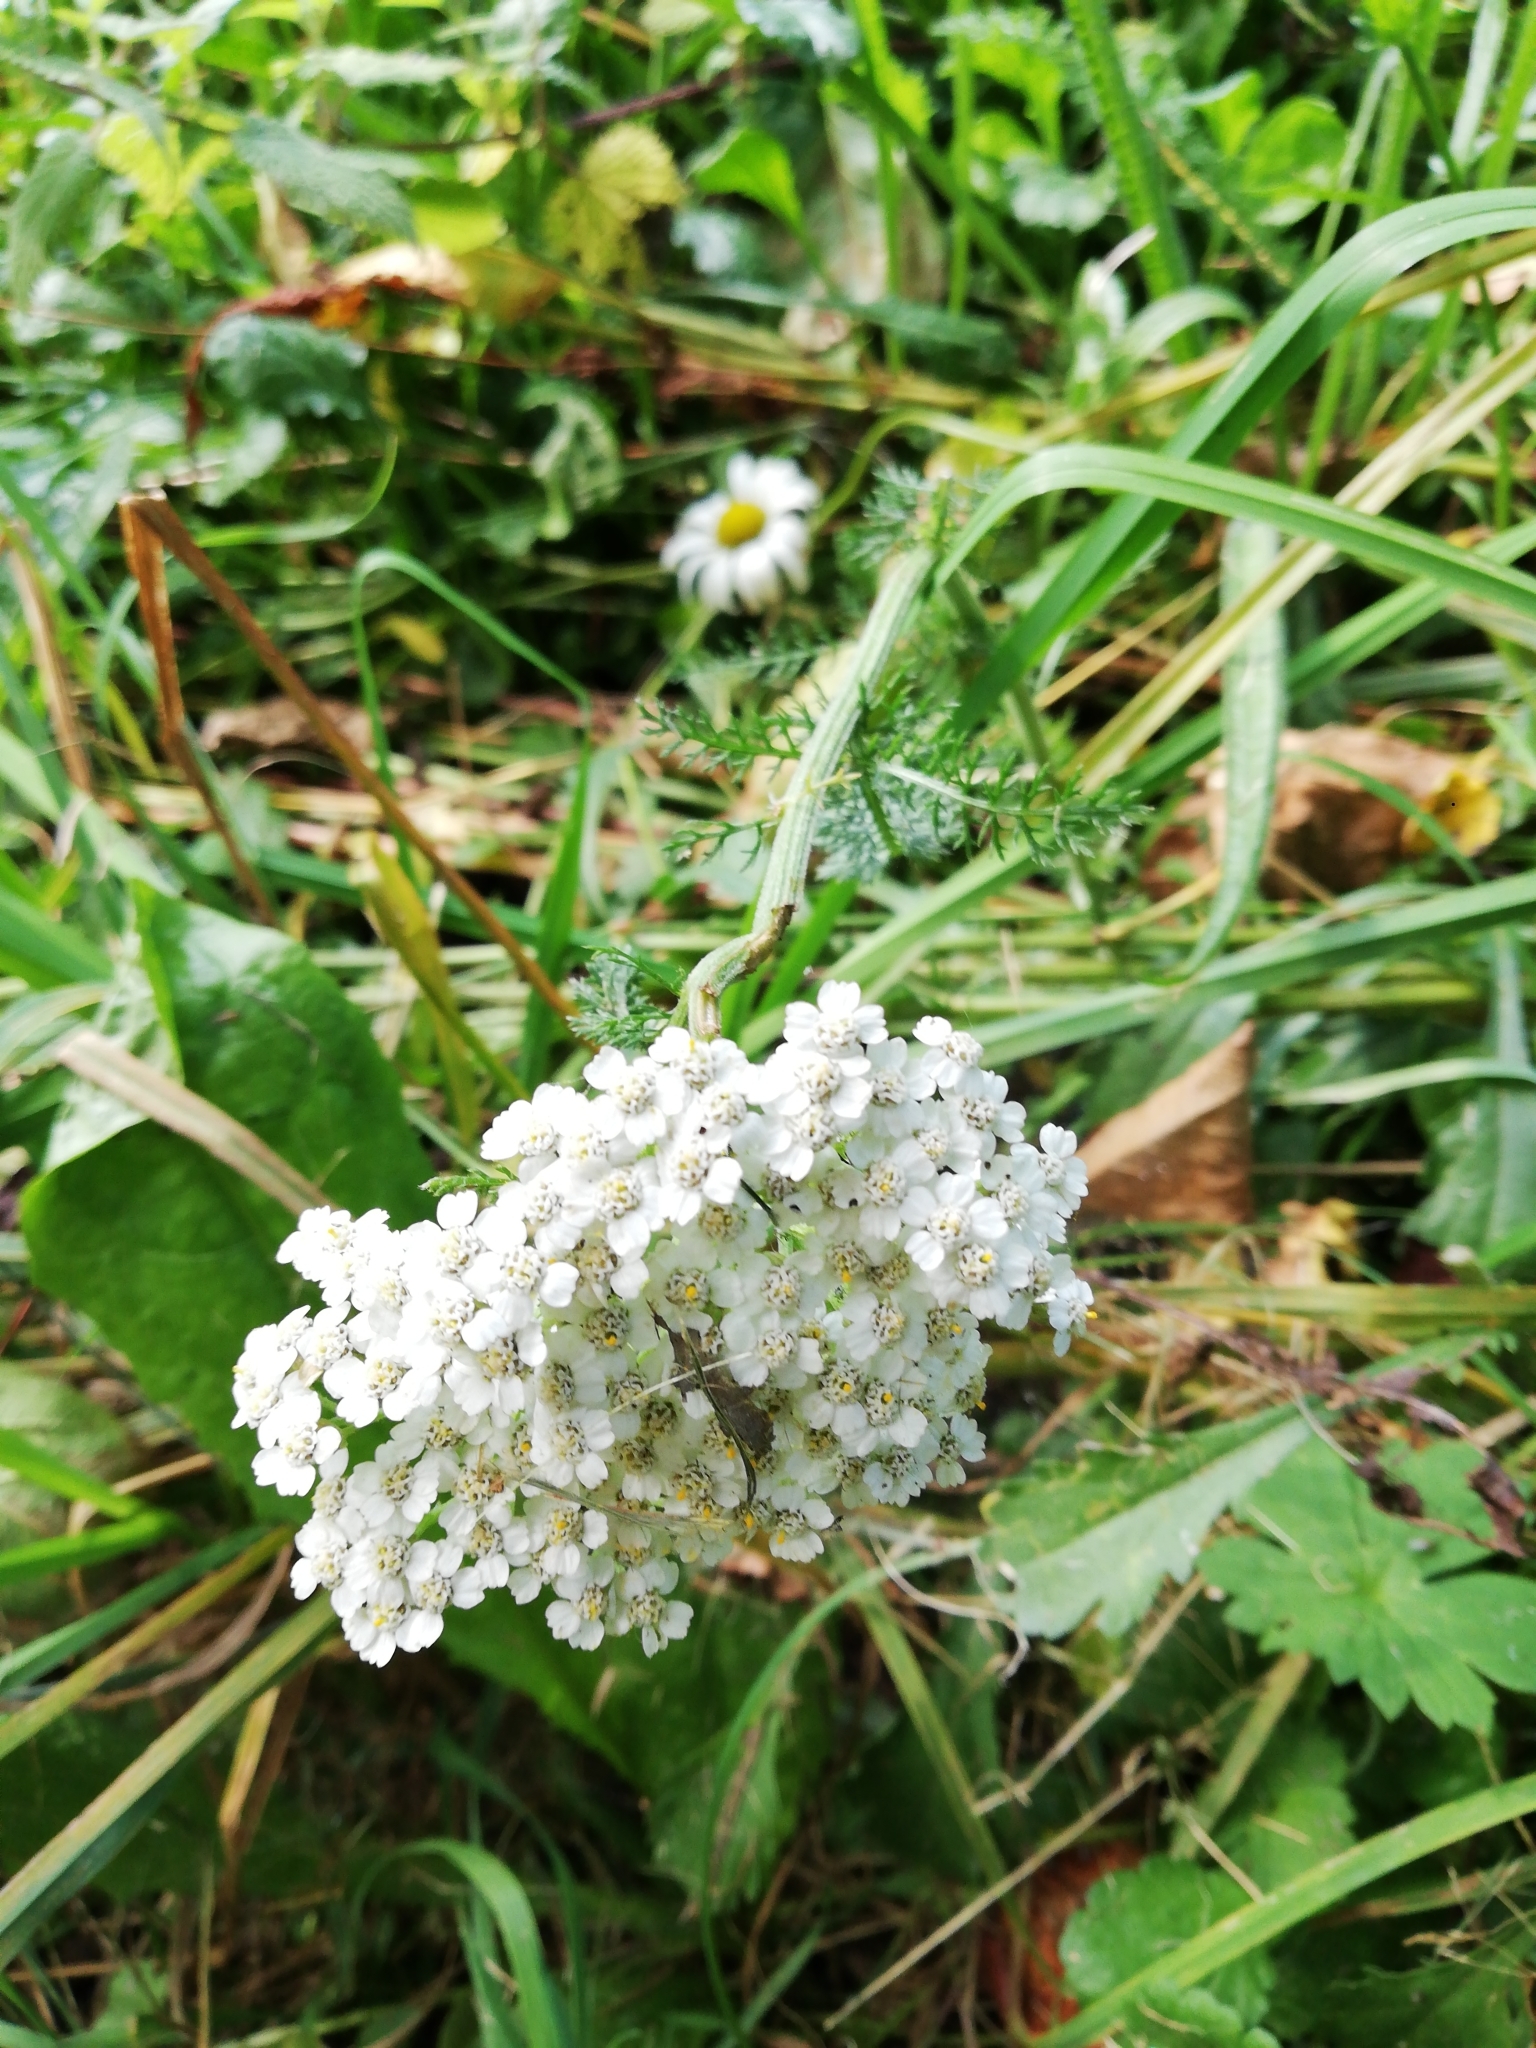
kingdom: Plantae
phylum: Tracheophyta
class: Magnoliopsida
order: Asterales
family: Asteraceae
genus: Achillea
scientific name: Achillea millefolium
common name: Yarrow
